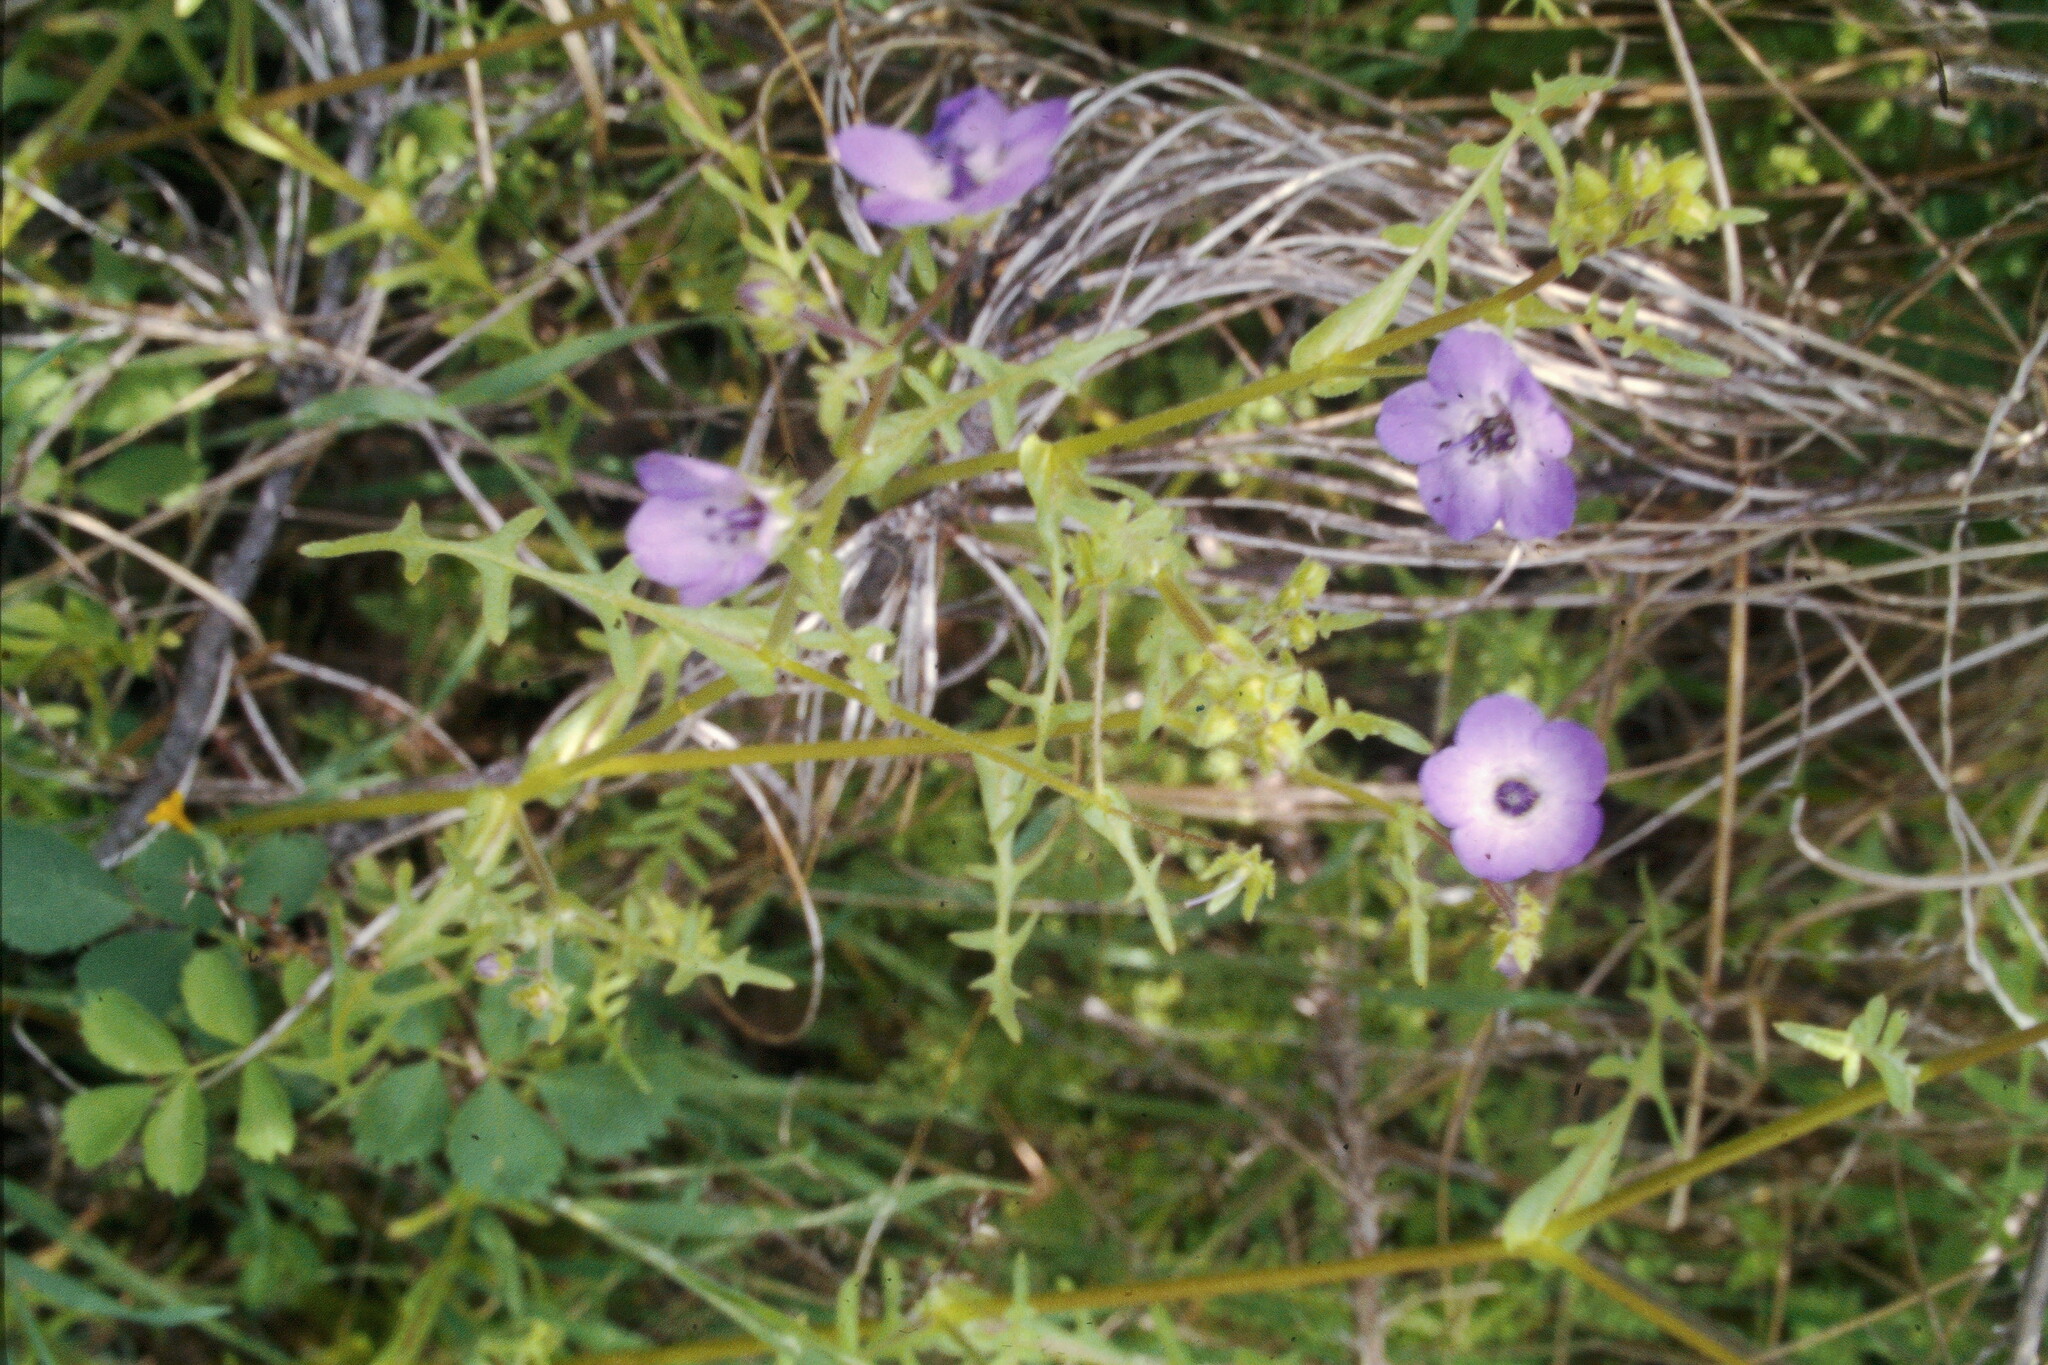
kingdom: Plantae
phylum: Tracheophyta
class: Magnoliopsida
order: Boraginales
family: Hydrophyllaceae
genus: Pholistoma
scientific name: Pholistoma auritum
